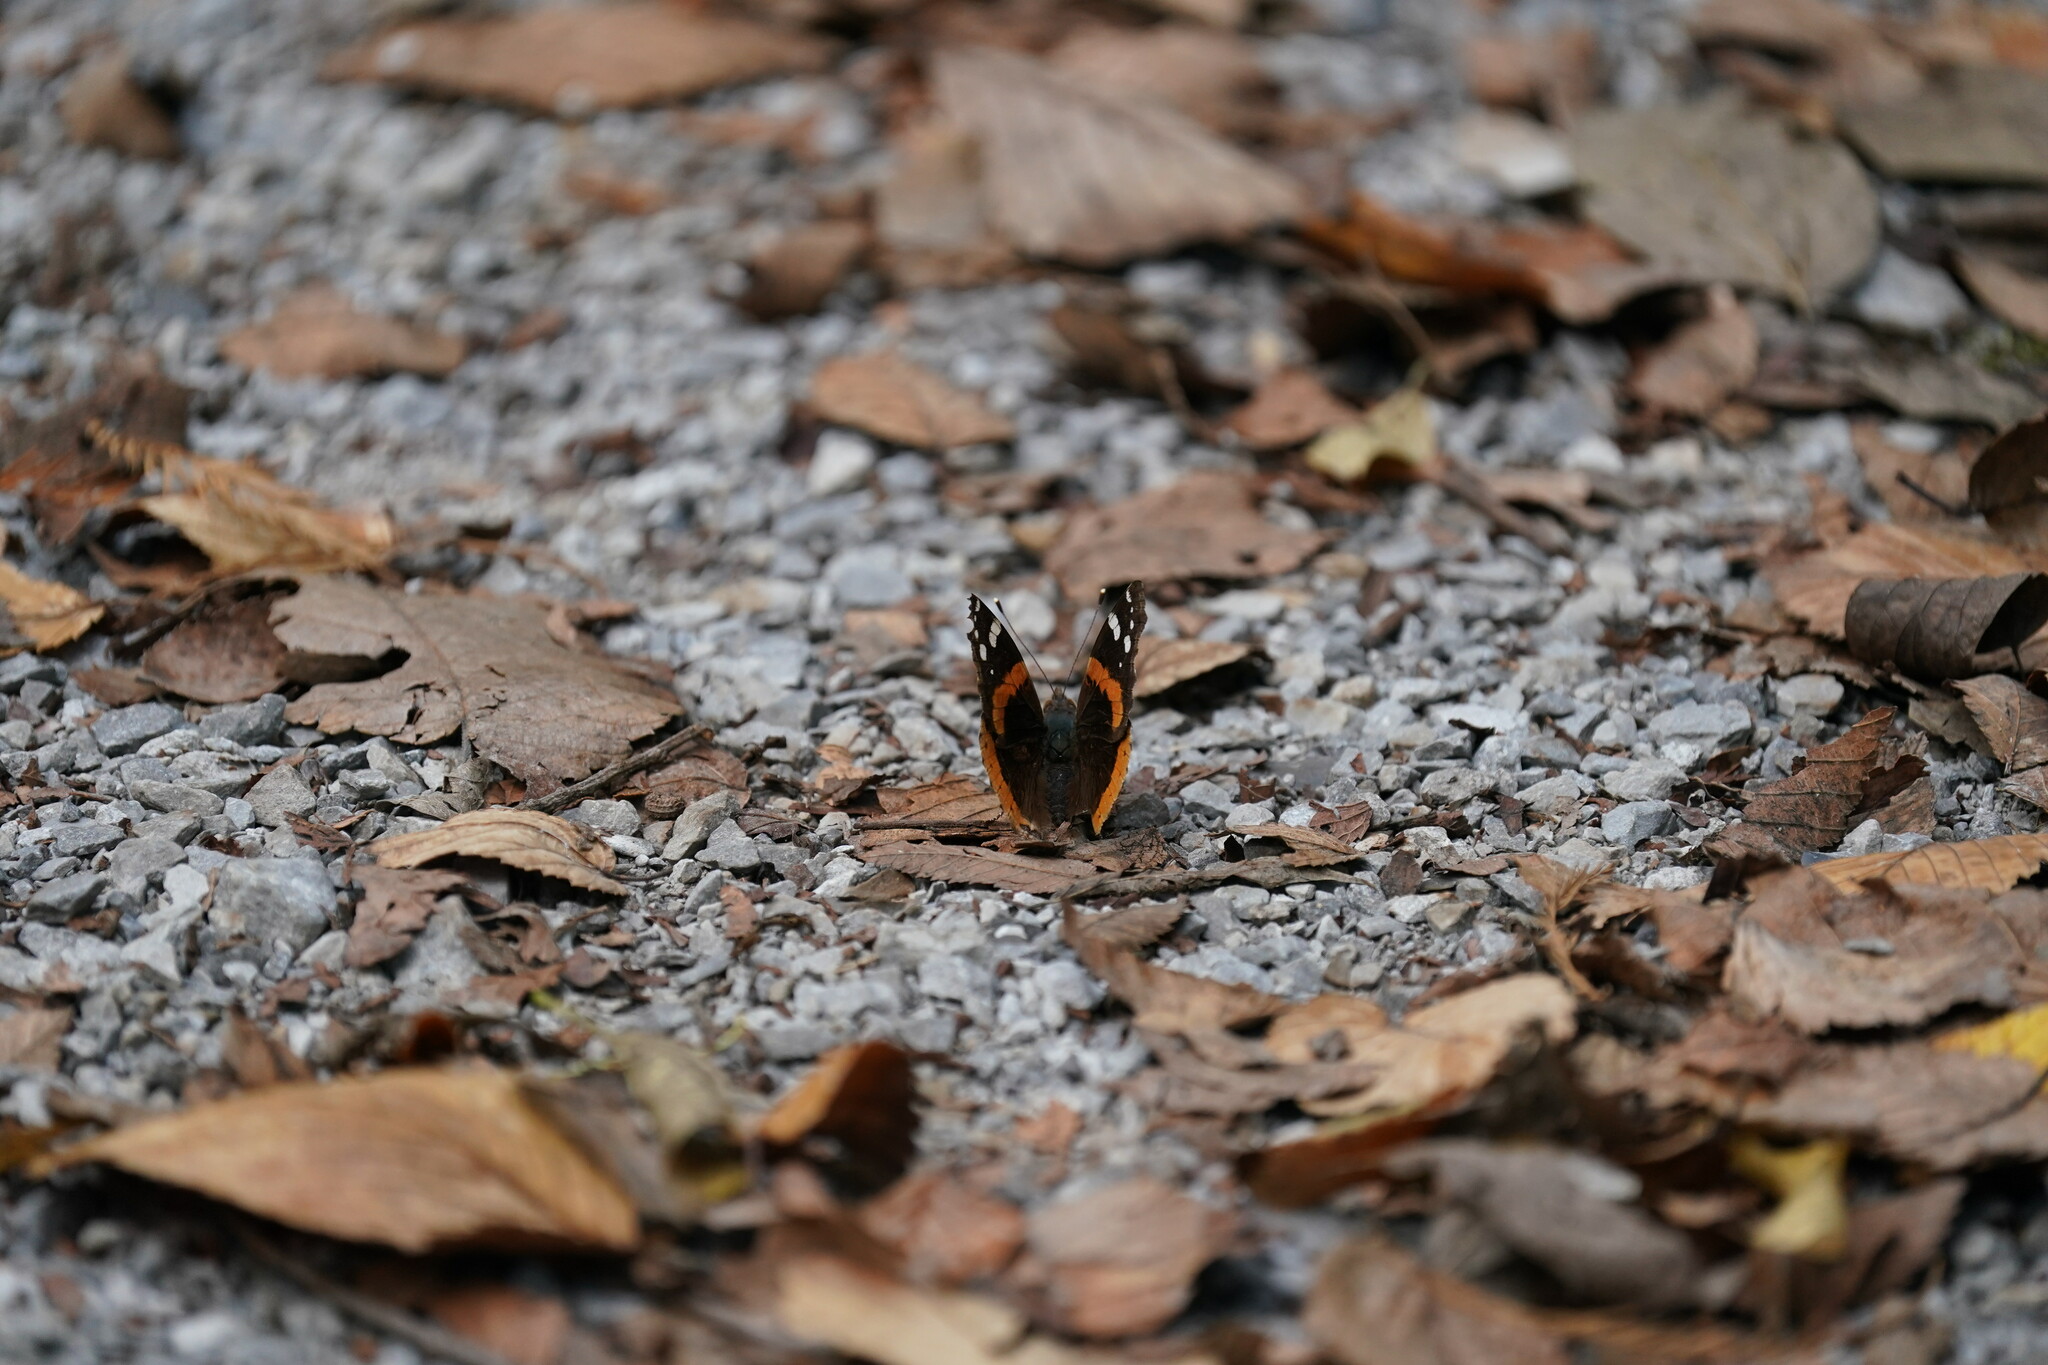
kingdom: Animalia
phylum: Arthropoda
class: Insecta
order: Lepidoptera
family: Nymphalidae
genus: Vanessa
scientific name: Vanessa atalanta
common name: Red admiral
